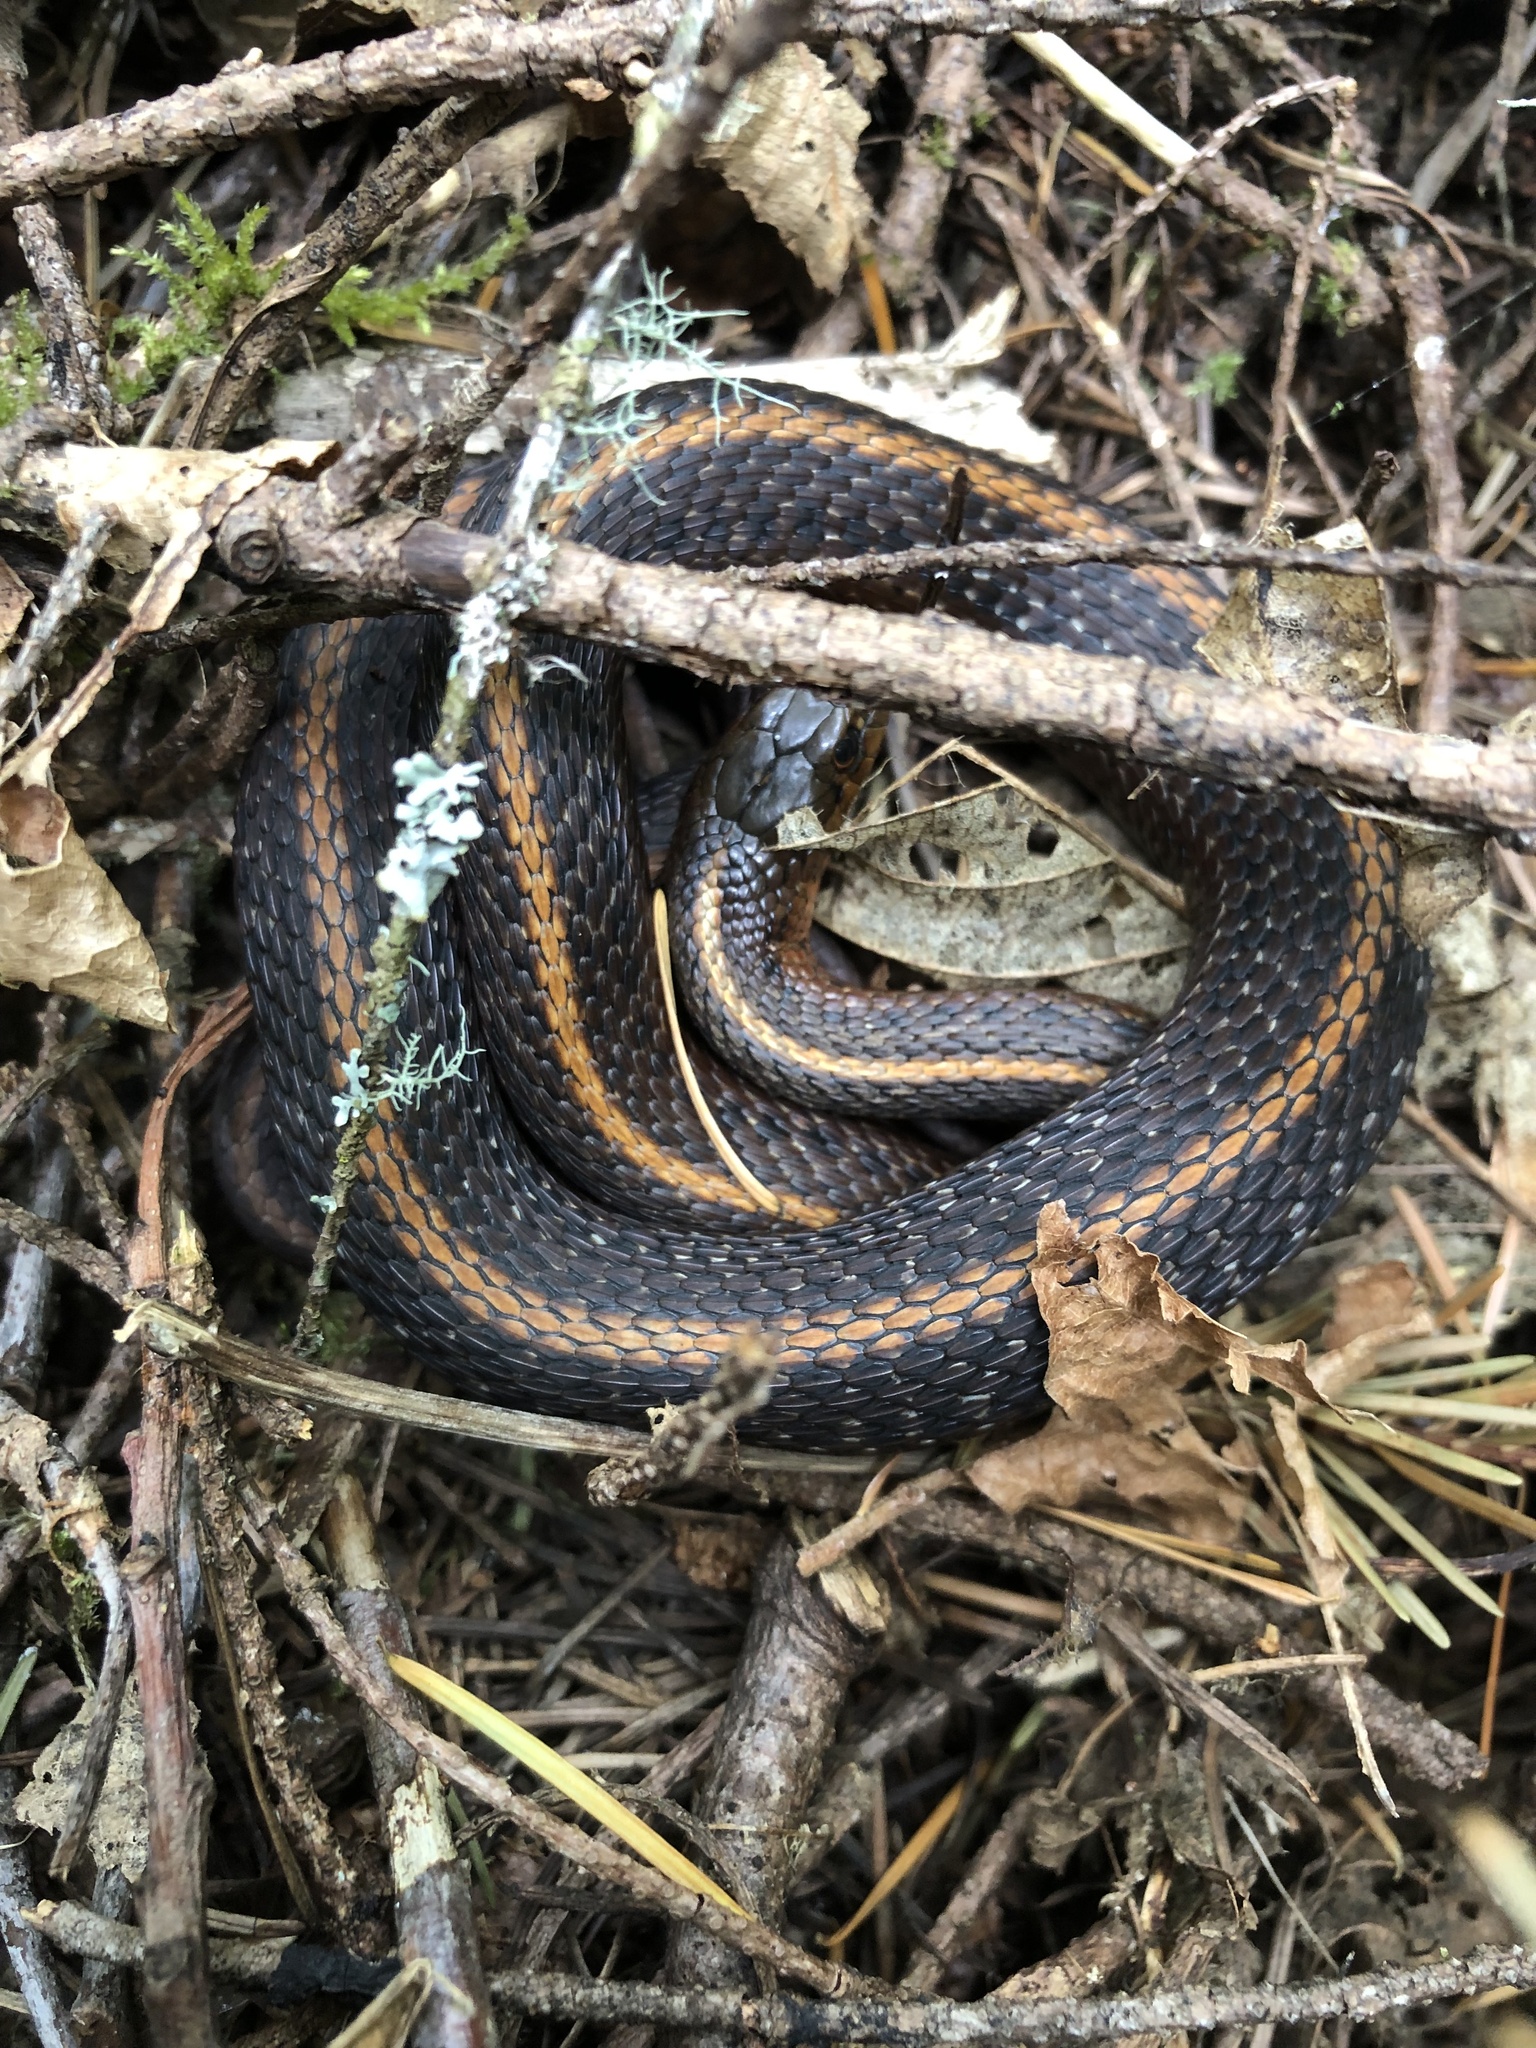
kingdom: Animalia
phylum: Chordata
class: Squamata
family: Colubridae
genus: Thamnophis
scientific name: Thamnophis ordinoides
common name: Northwestern garter snake
